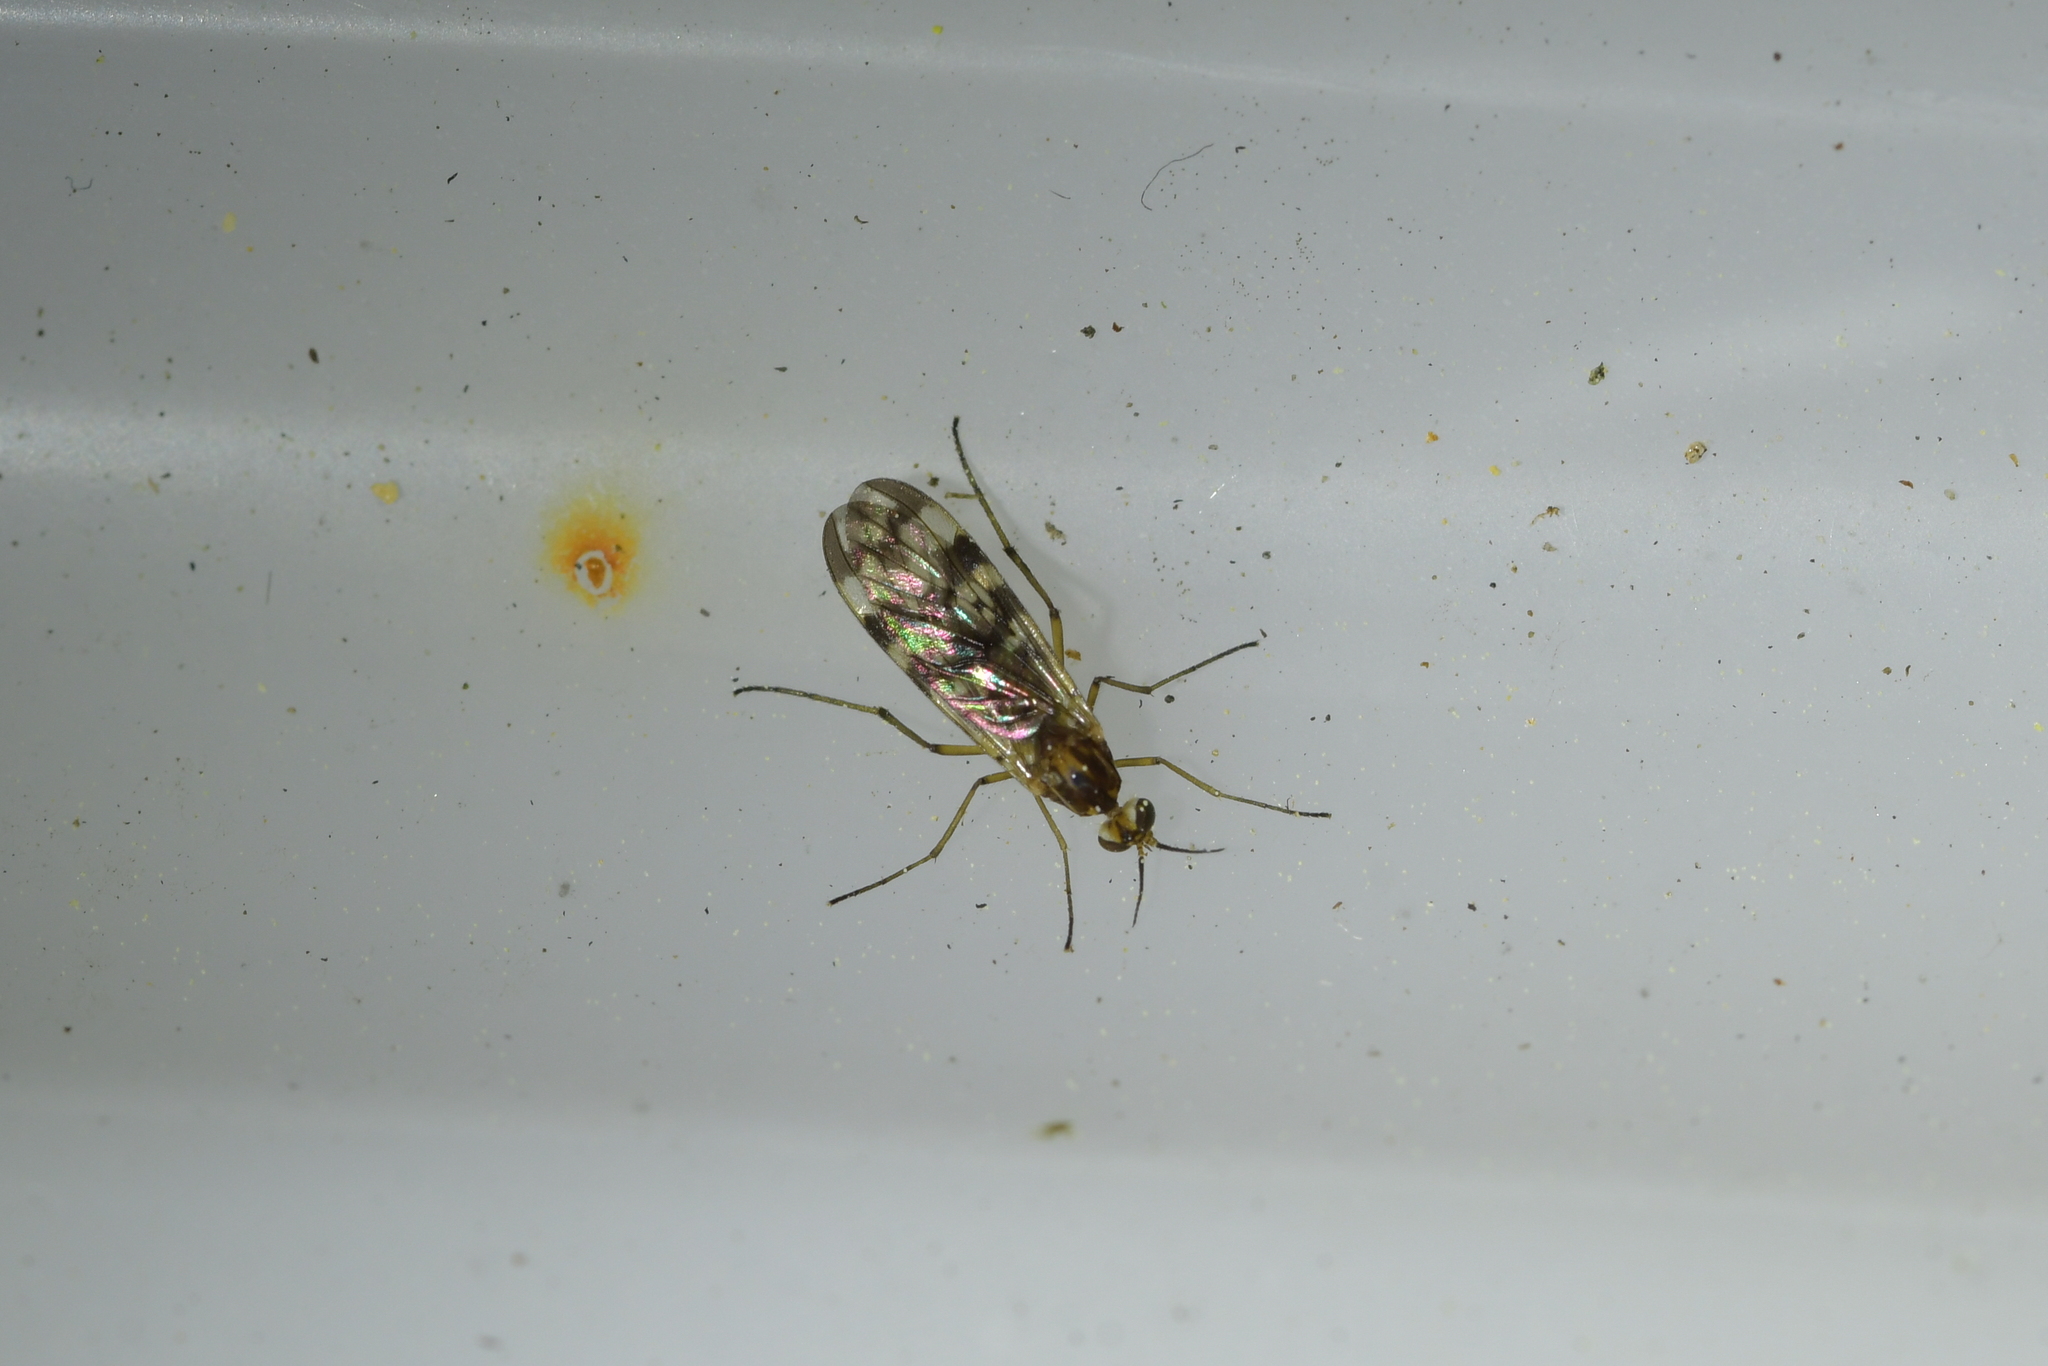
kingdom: Animalia
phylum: Arthropoda
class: Insecta
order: Diptera
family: Anisopodidae
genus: Sylvicola
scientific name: Sylvicola dubius
